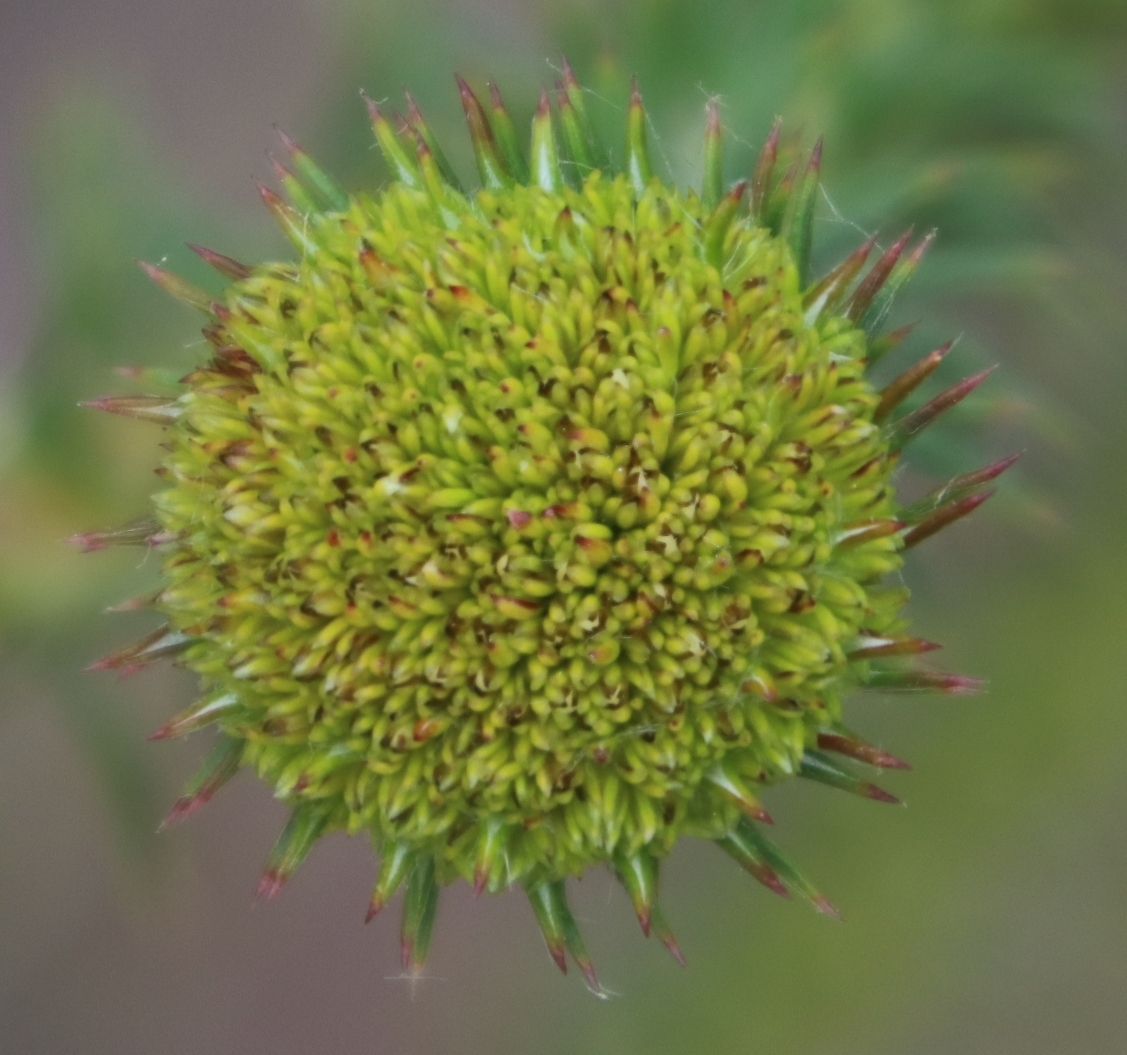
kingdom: Plantae
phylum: Tracheophyta
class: Magnoliopsida
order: Asterales
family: Asteraceae
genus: Stoebe
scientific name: Stoebe aethiopica
